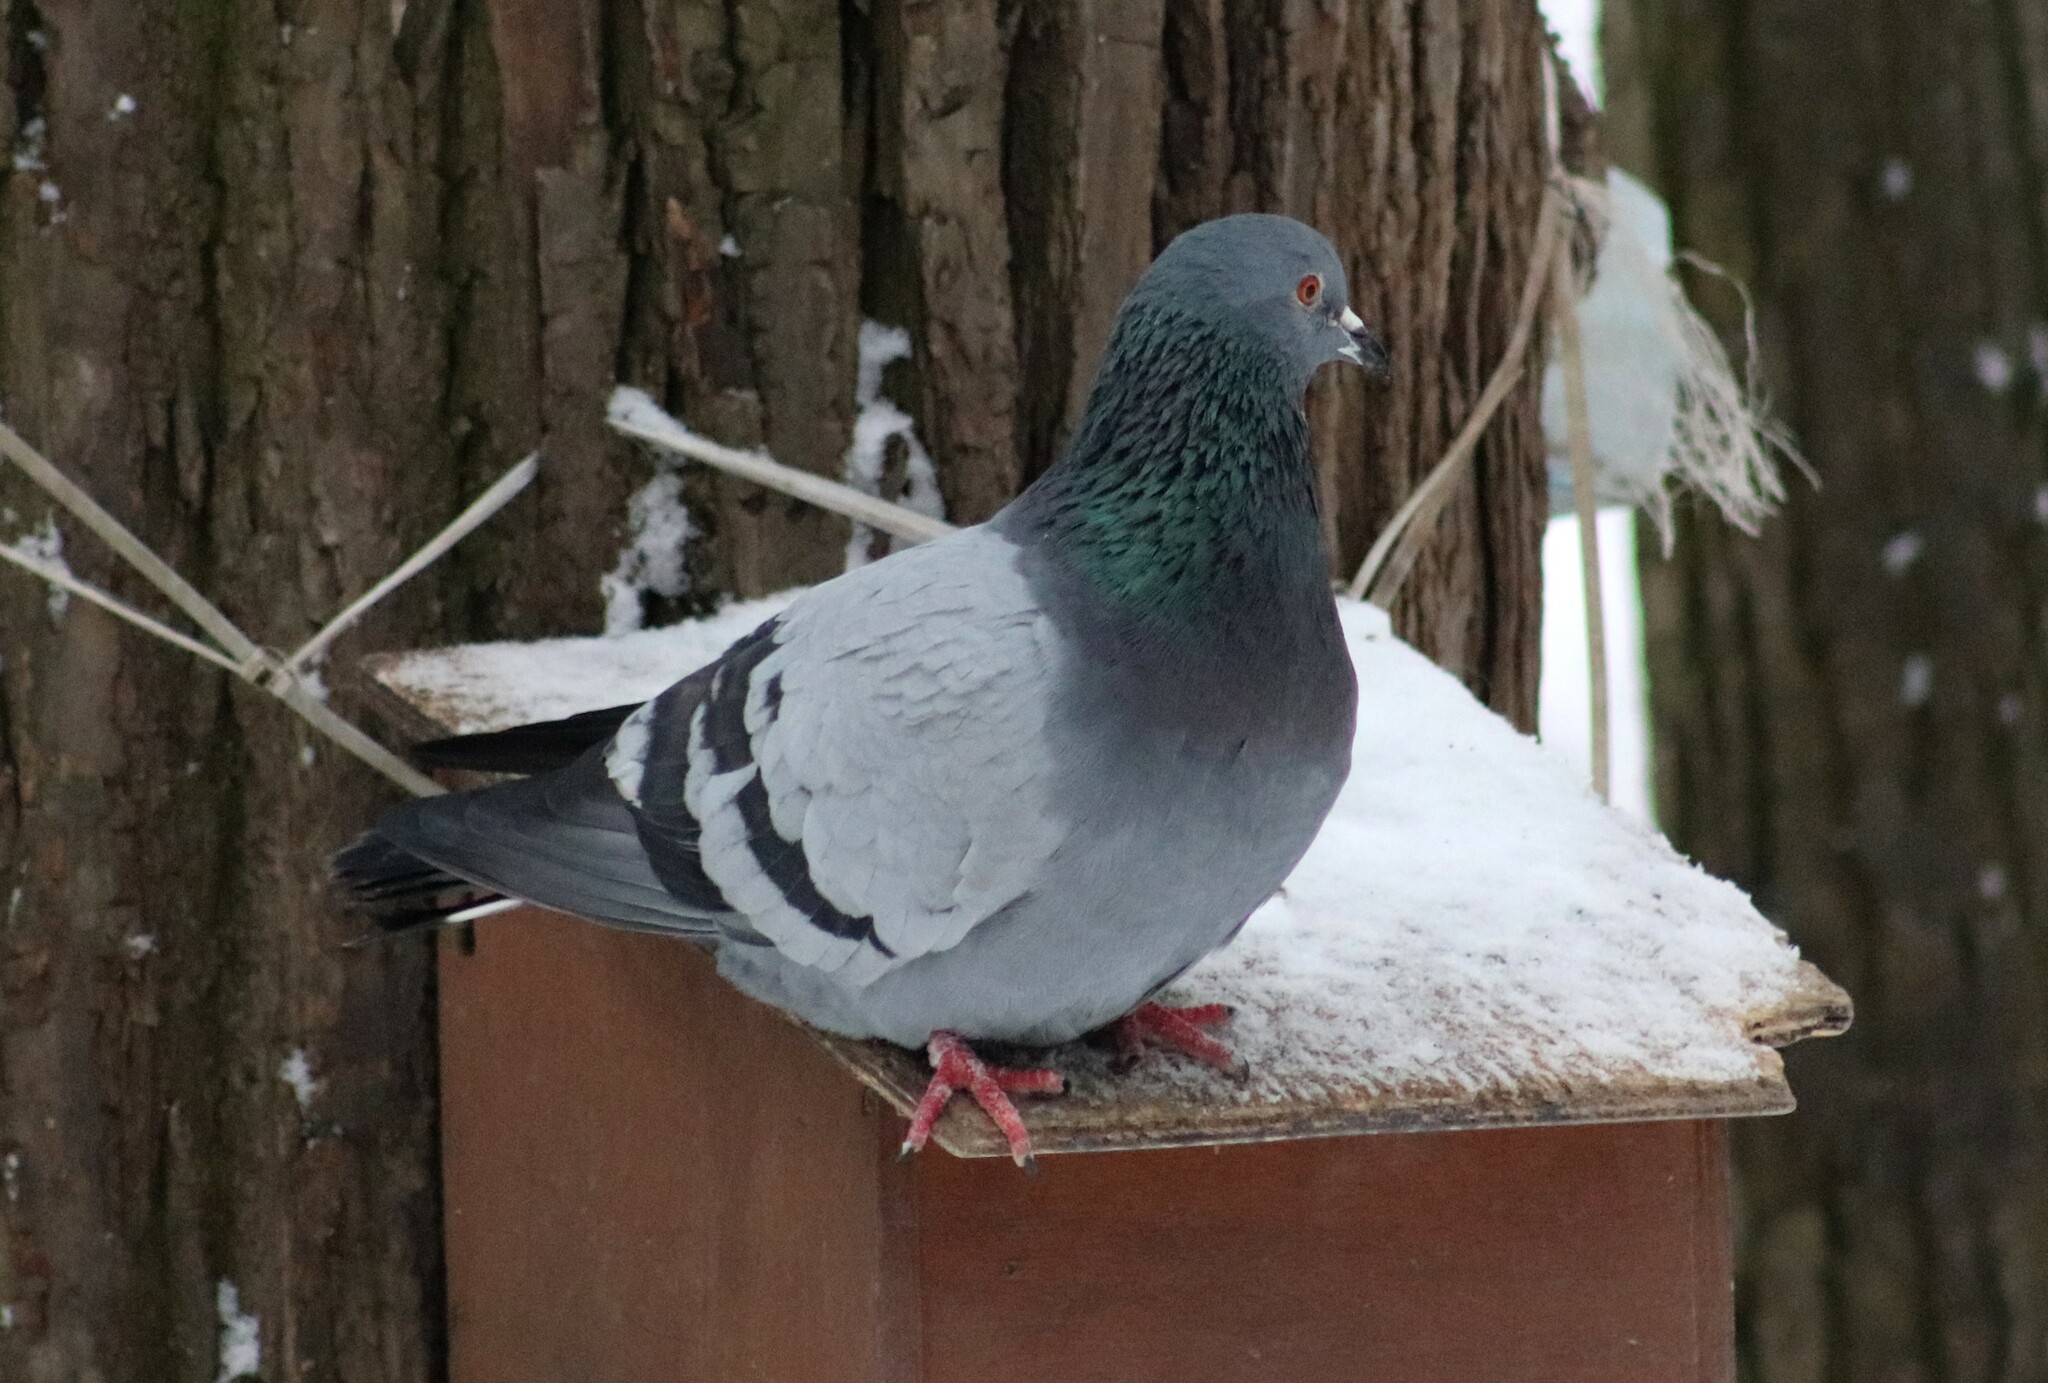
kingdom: Animalia
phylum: Chordata
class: Aves
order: Columbiformes
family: Columbidae
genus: Columba
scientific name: Columba livia
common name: Rock pigeon
